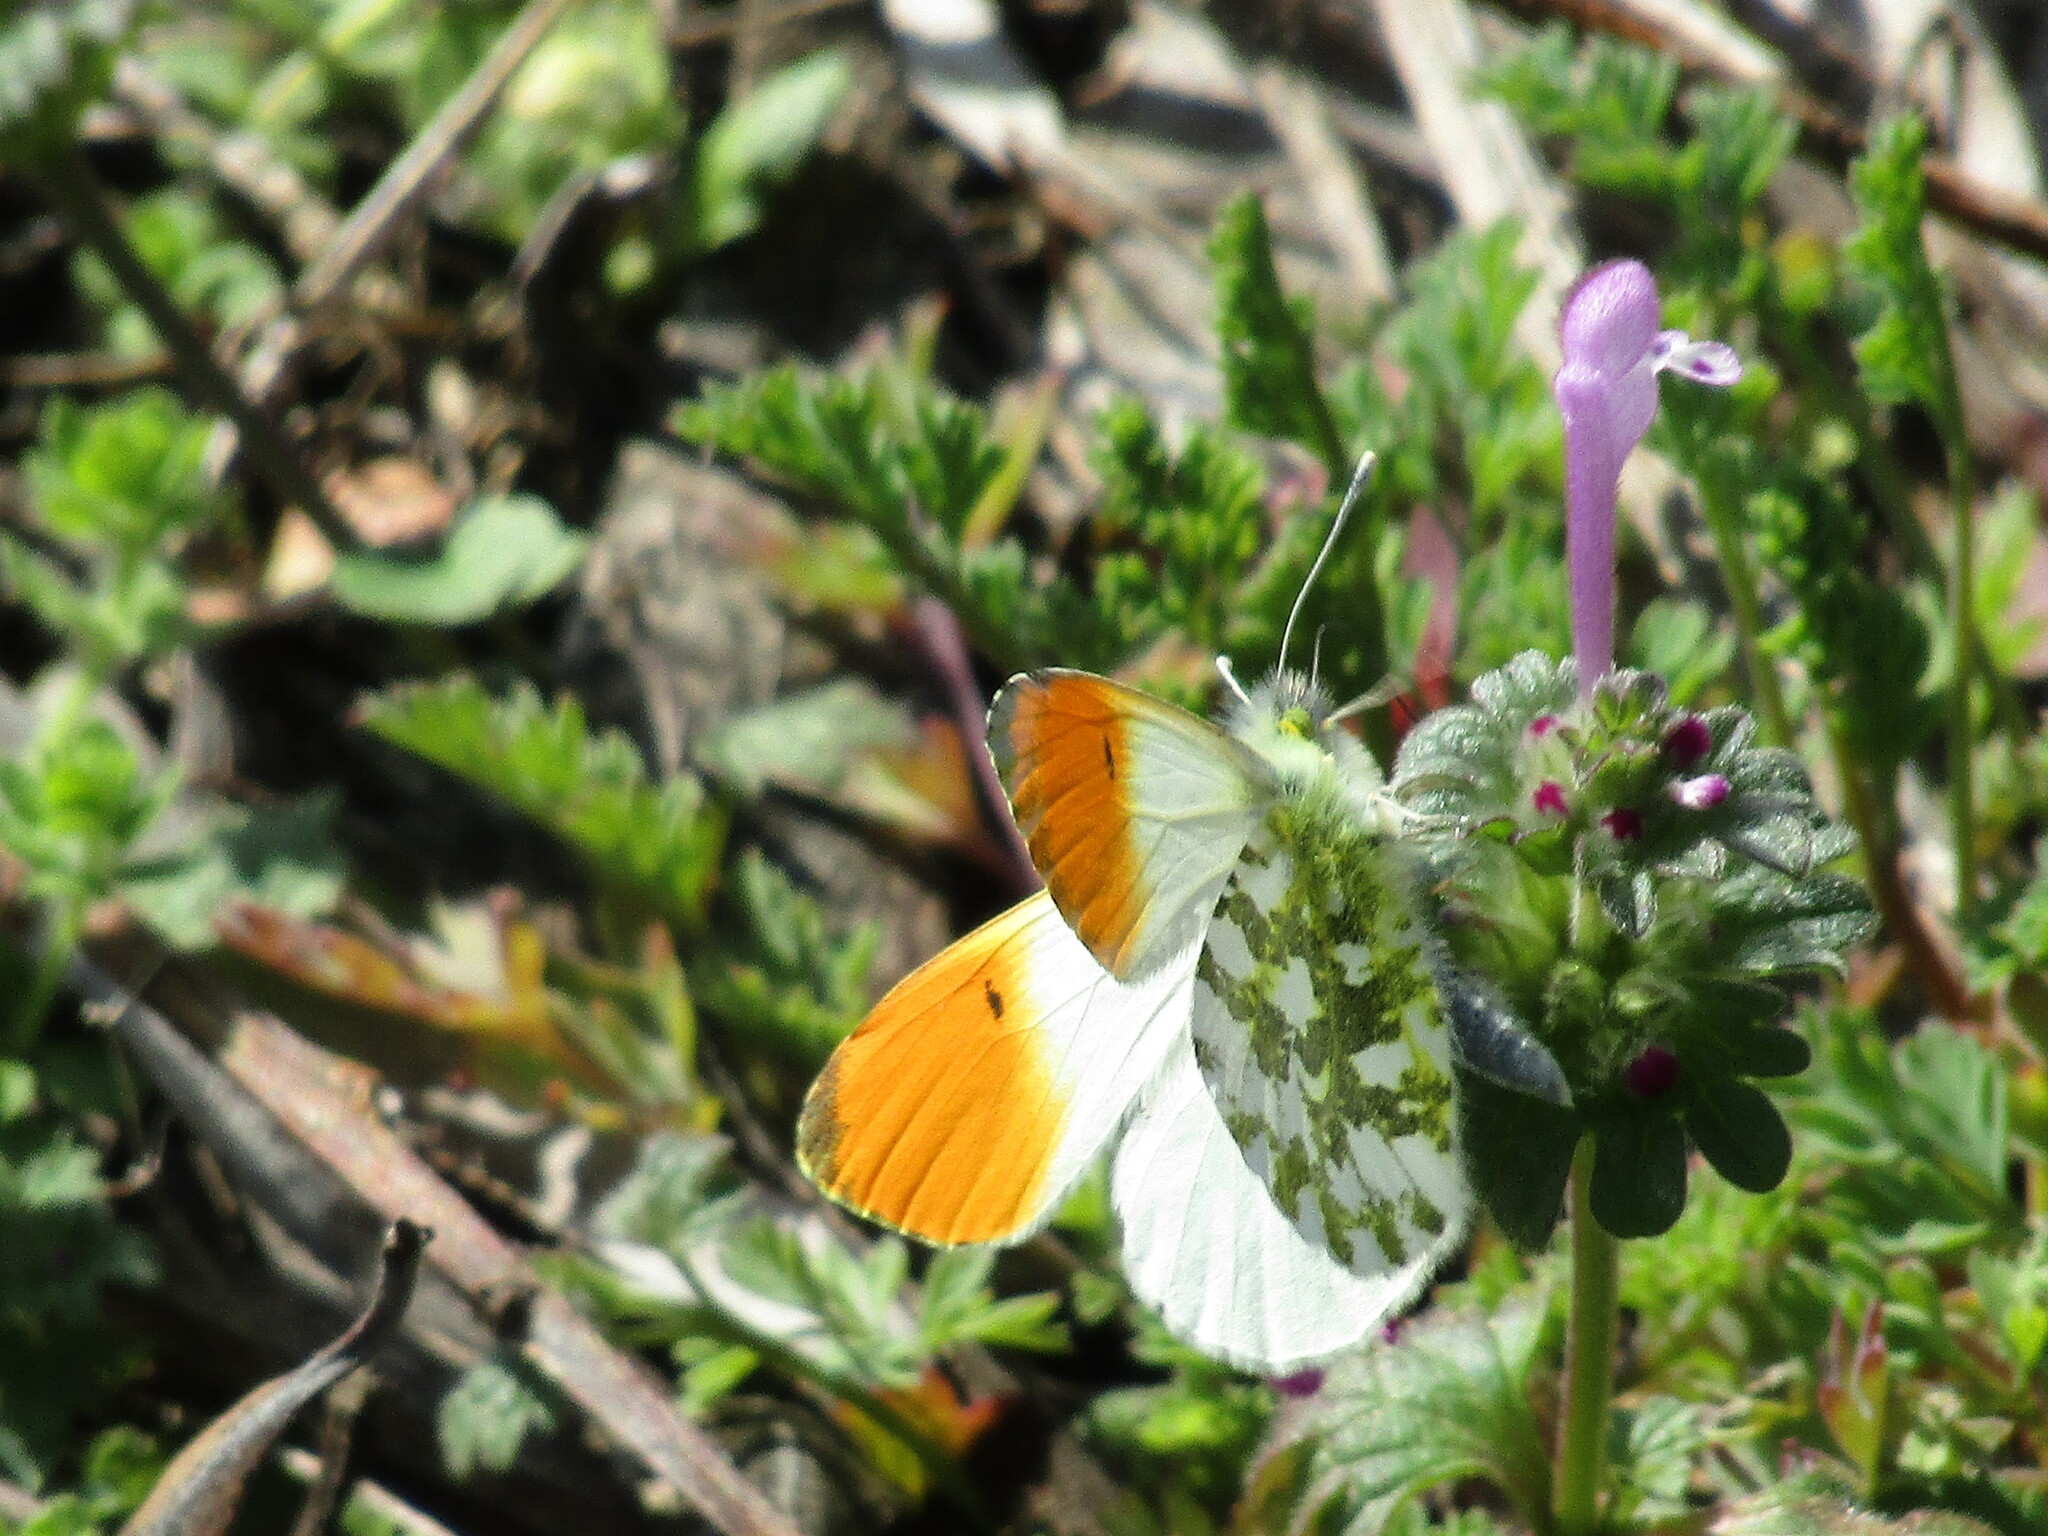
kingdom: Animalia
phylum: Arthropoda
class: Insecta
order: Lepidoptera
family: Pieridae
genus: Anthocharis
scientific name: Anthocharis cardamines
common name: Orange-tip
